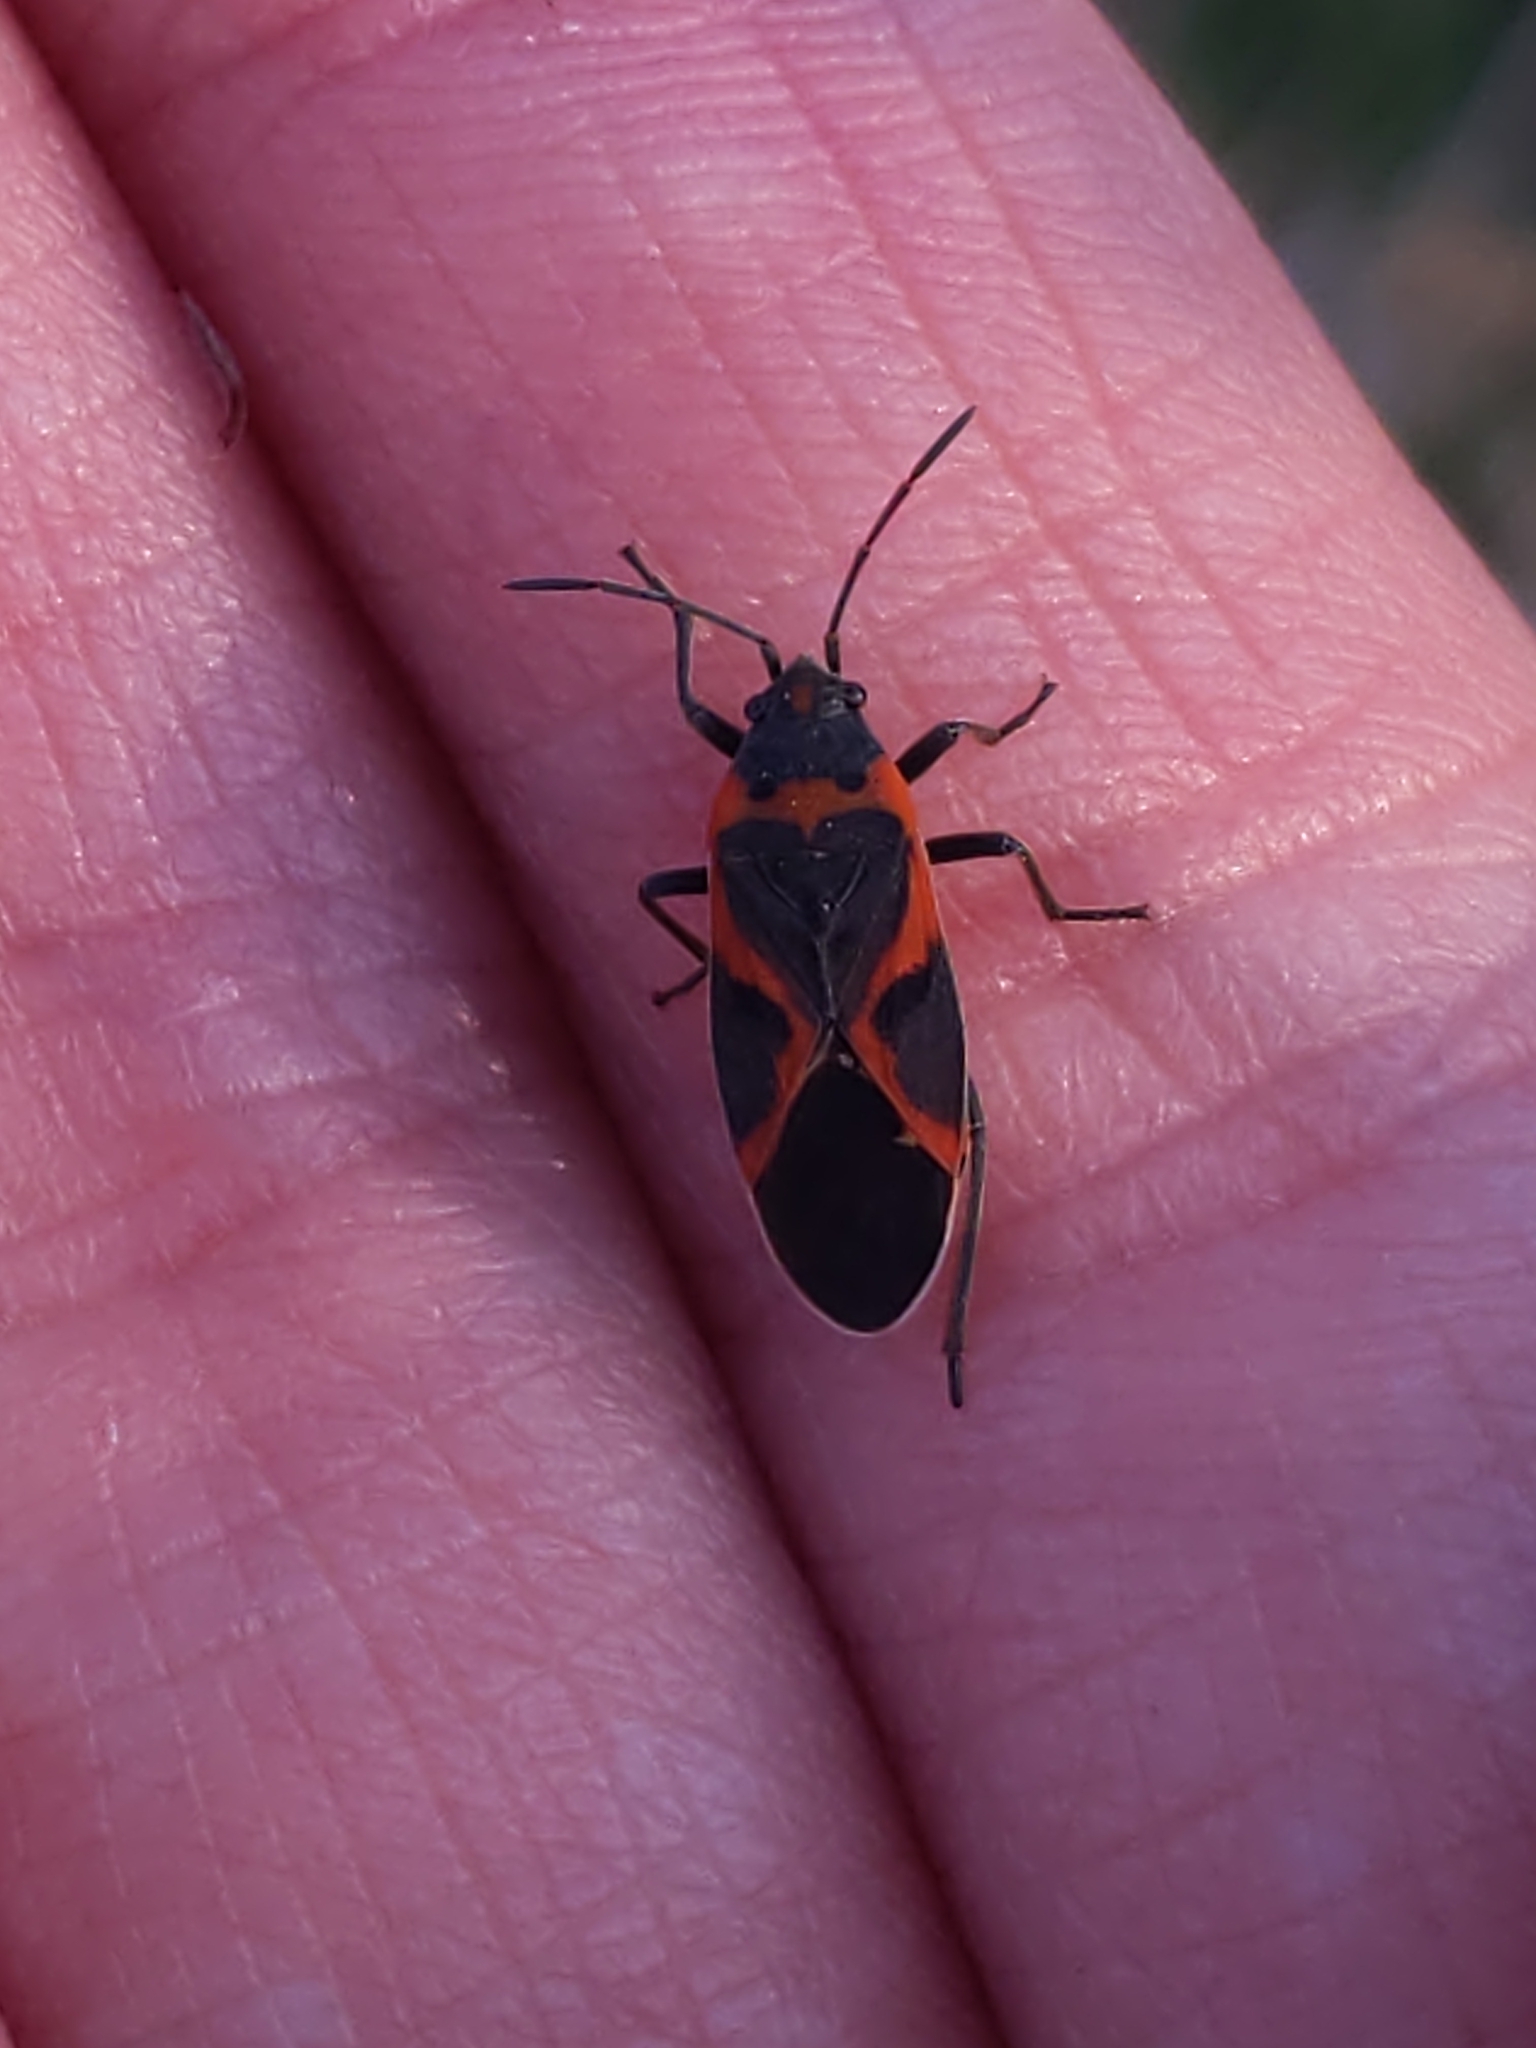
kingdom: Animalia
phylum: Arthropoda
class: Insecta
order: Hemiptera
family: Lygaeidae
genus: Lygaeus
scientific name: Lygaeus kalmii
